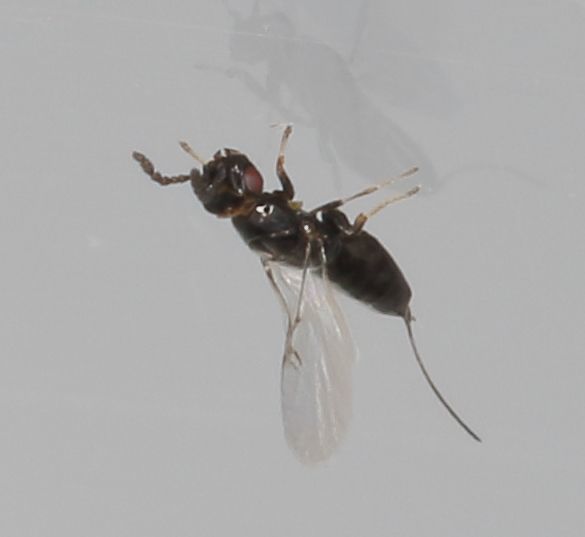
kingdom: Animalia
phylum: Arthropoda
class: Insecta
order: Hymenoptera
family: Agaonidae
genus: Platyscapa
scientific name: Platyscapa soraria
